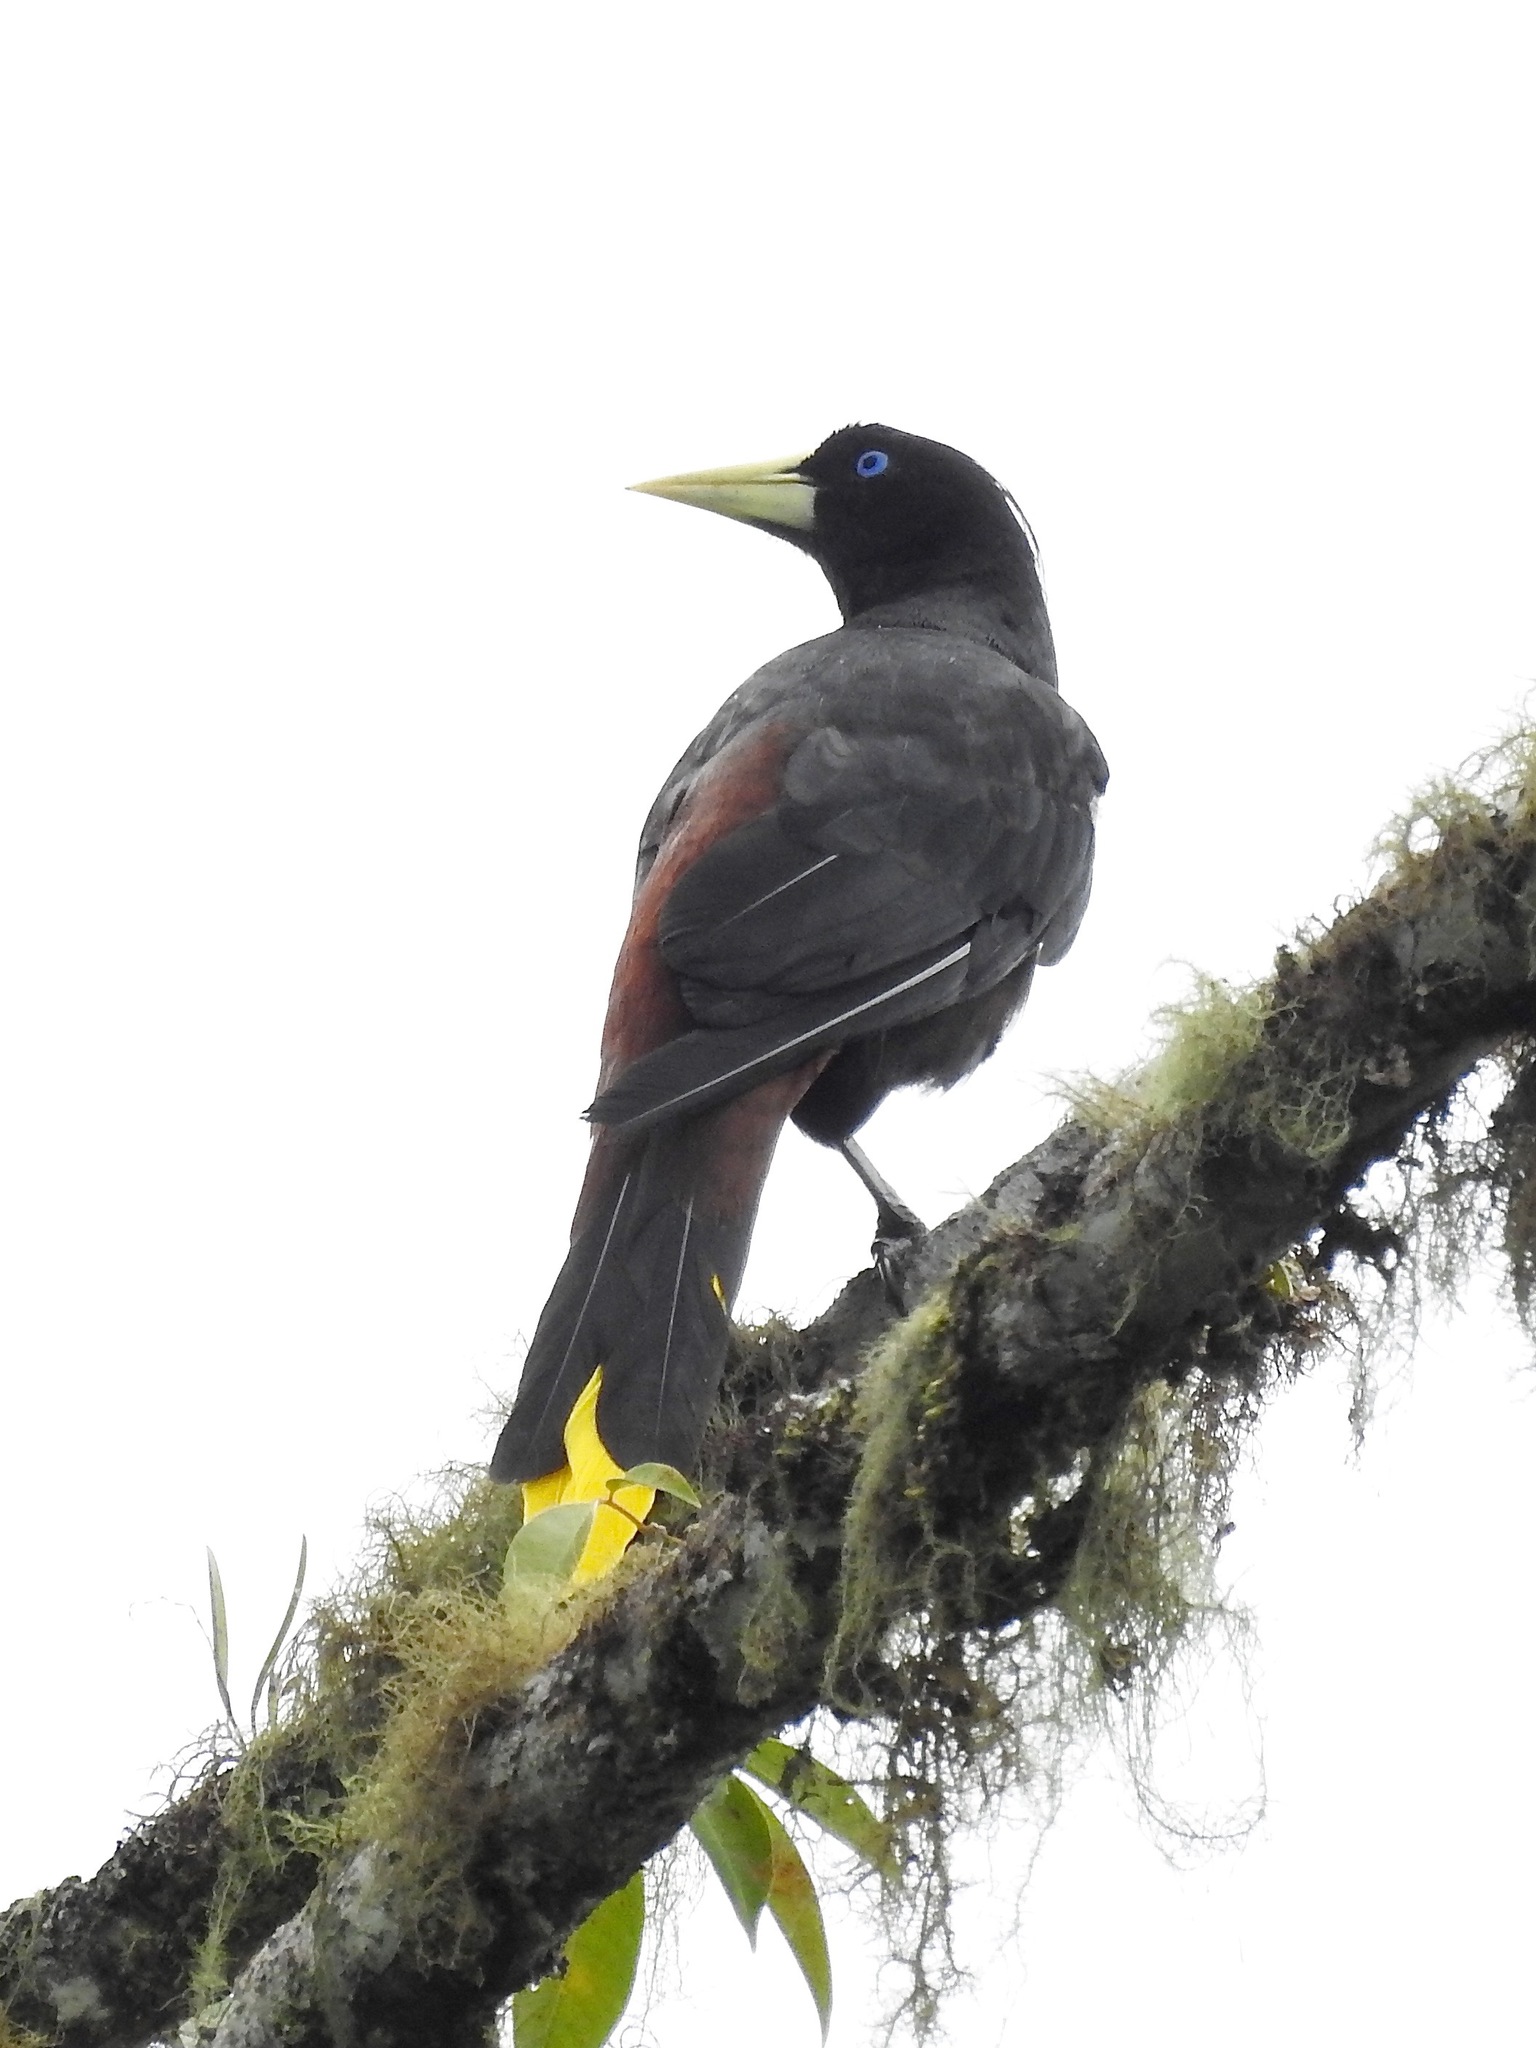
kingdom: Animalia
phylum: Chordata
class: Aves
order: Passeriformes
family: Icteridae
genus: Psarocolius
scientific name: Psarocolius decumanus
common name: Crested oropendola
